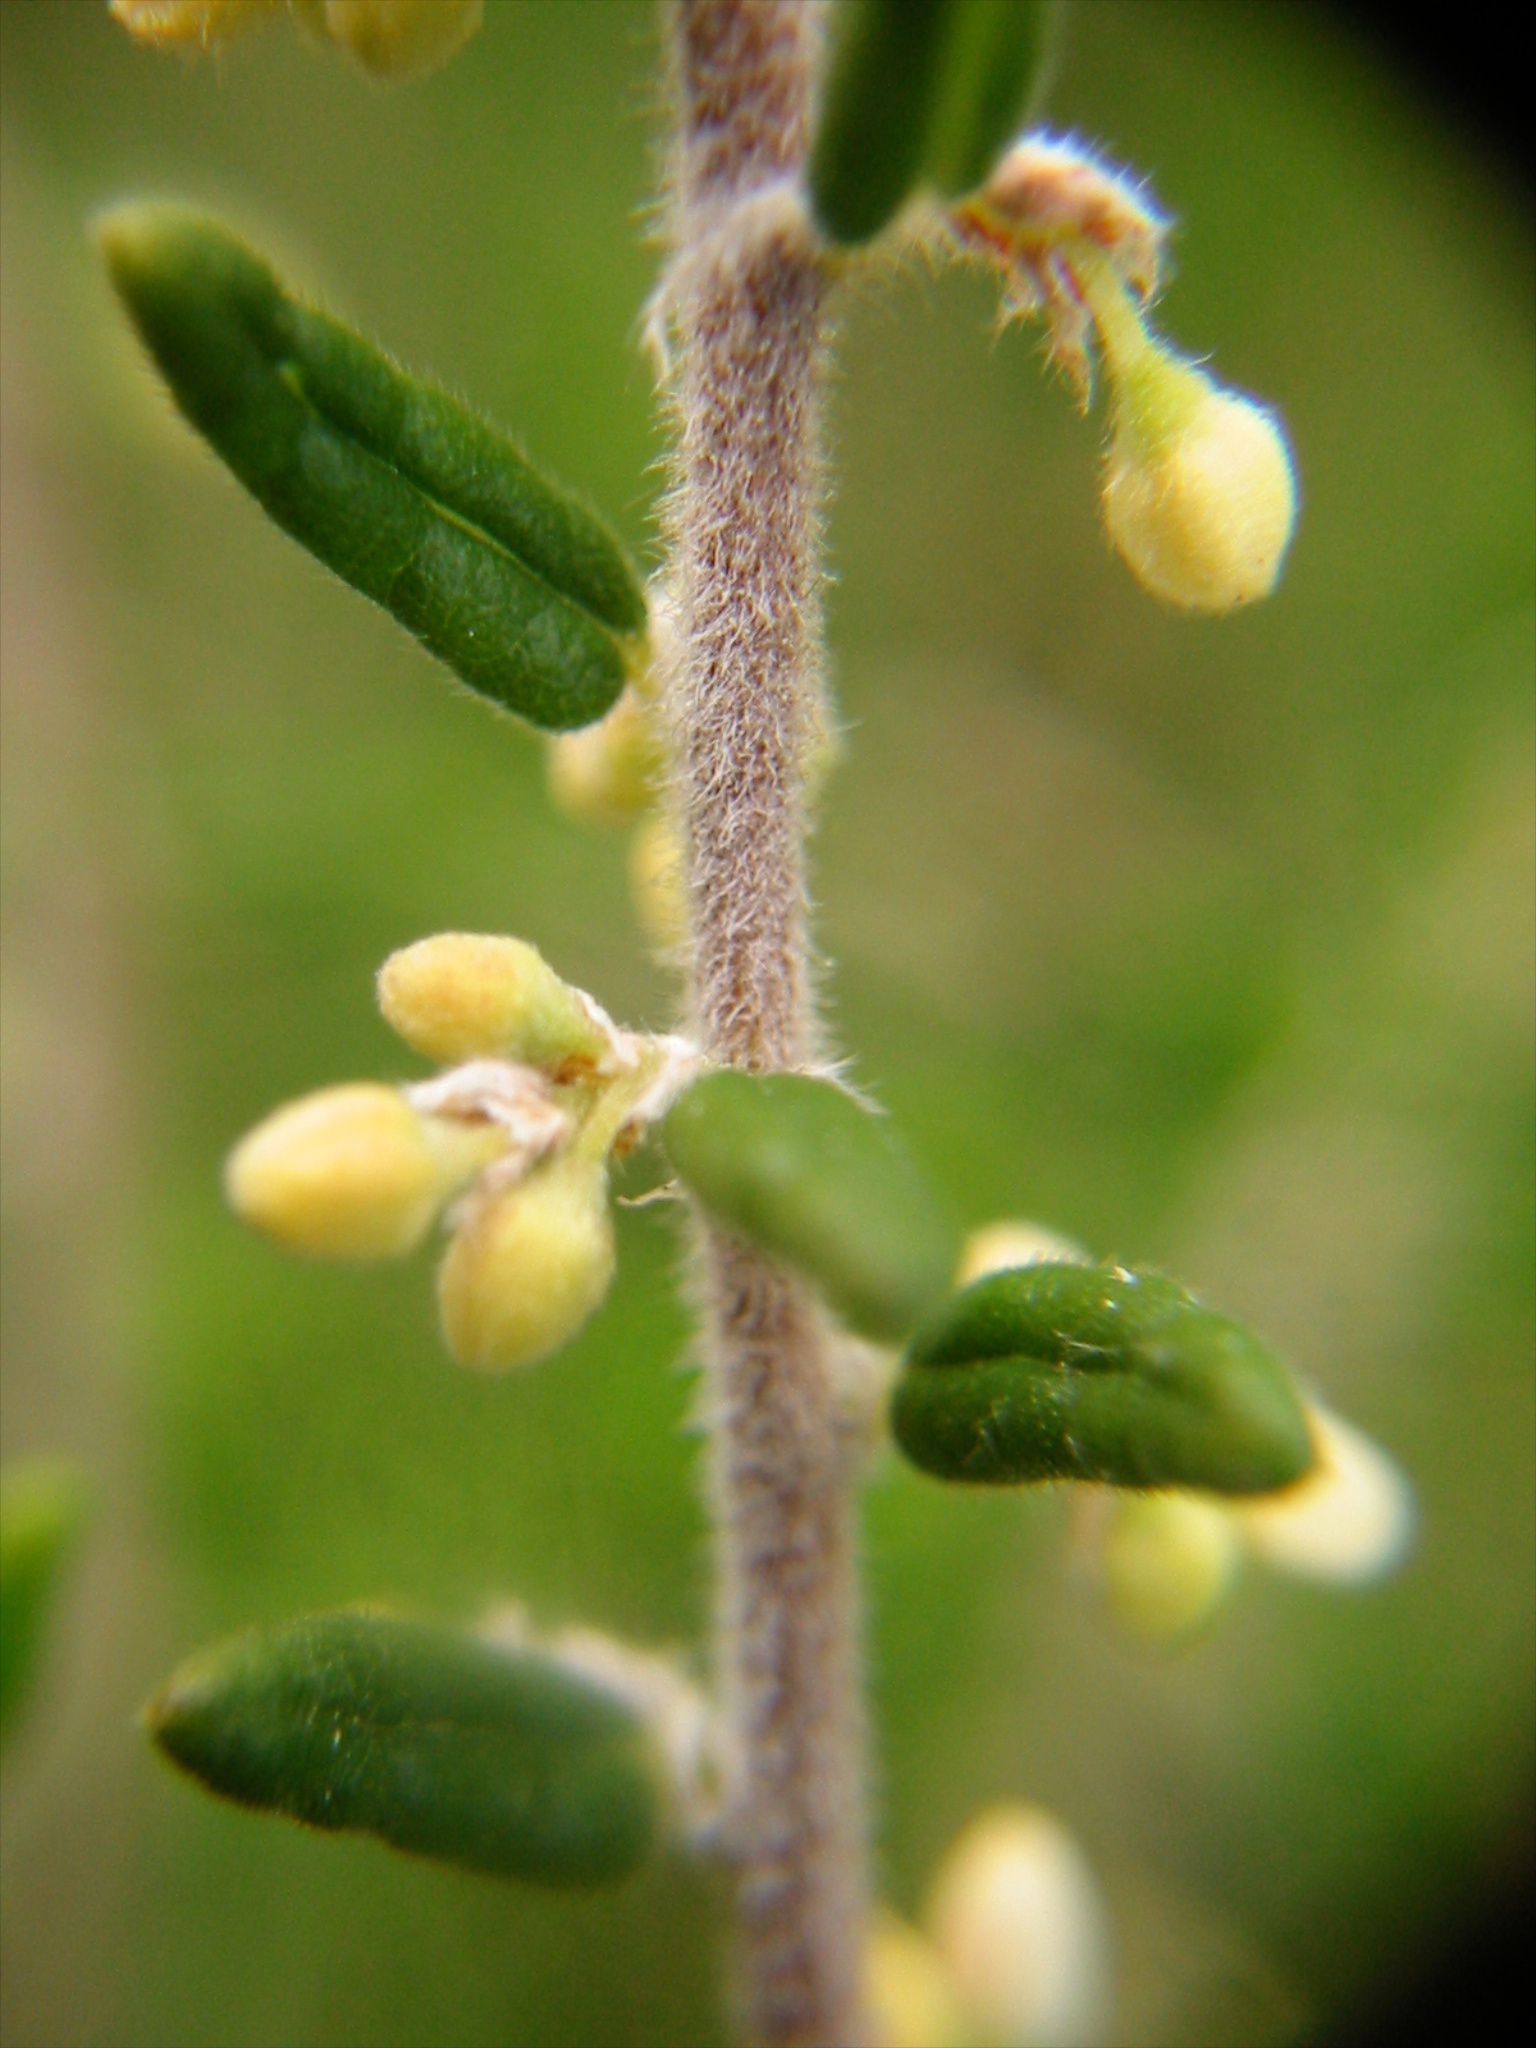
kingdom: Plantae
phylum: Tracheophyta
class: Magnoliopsida
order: Rosales
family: Rhamnaceae
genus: Pomaderris
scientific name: Pomaderris phylicifolia
